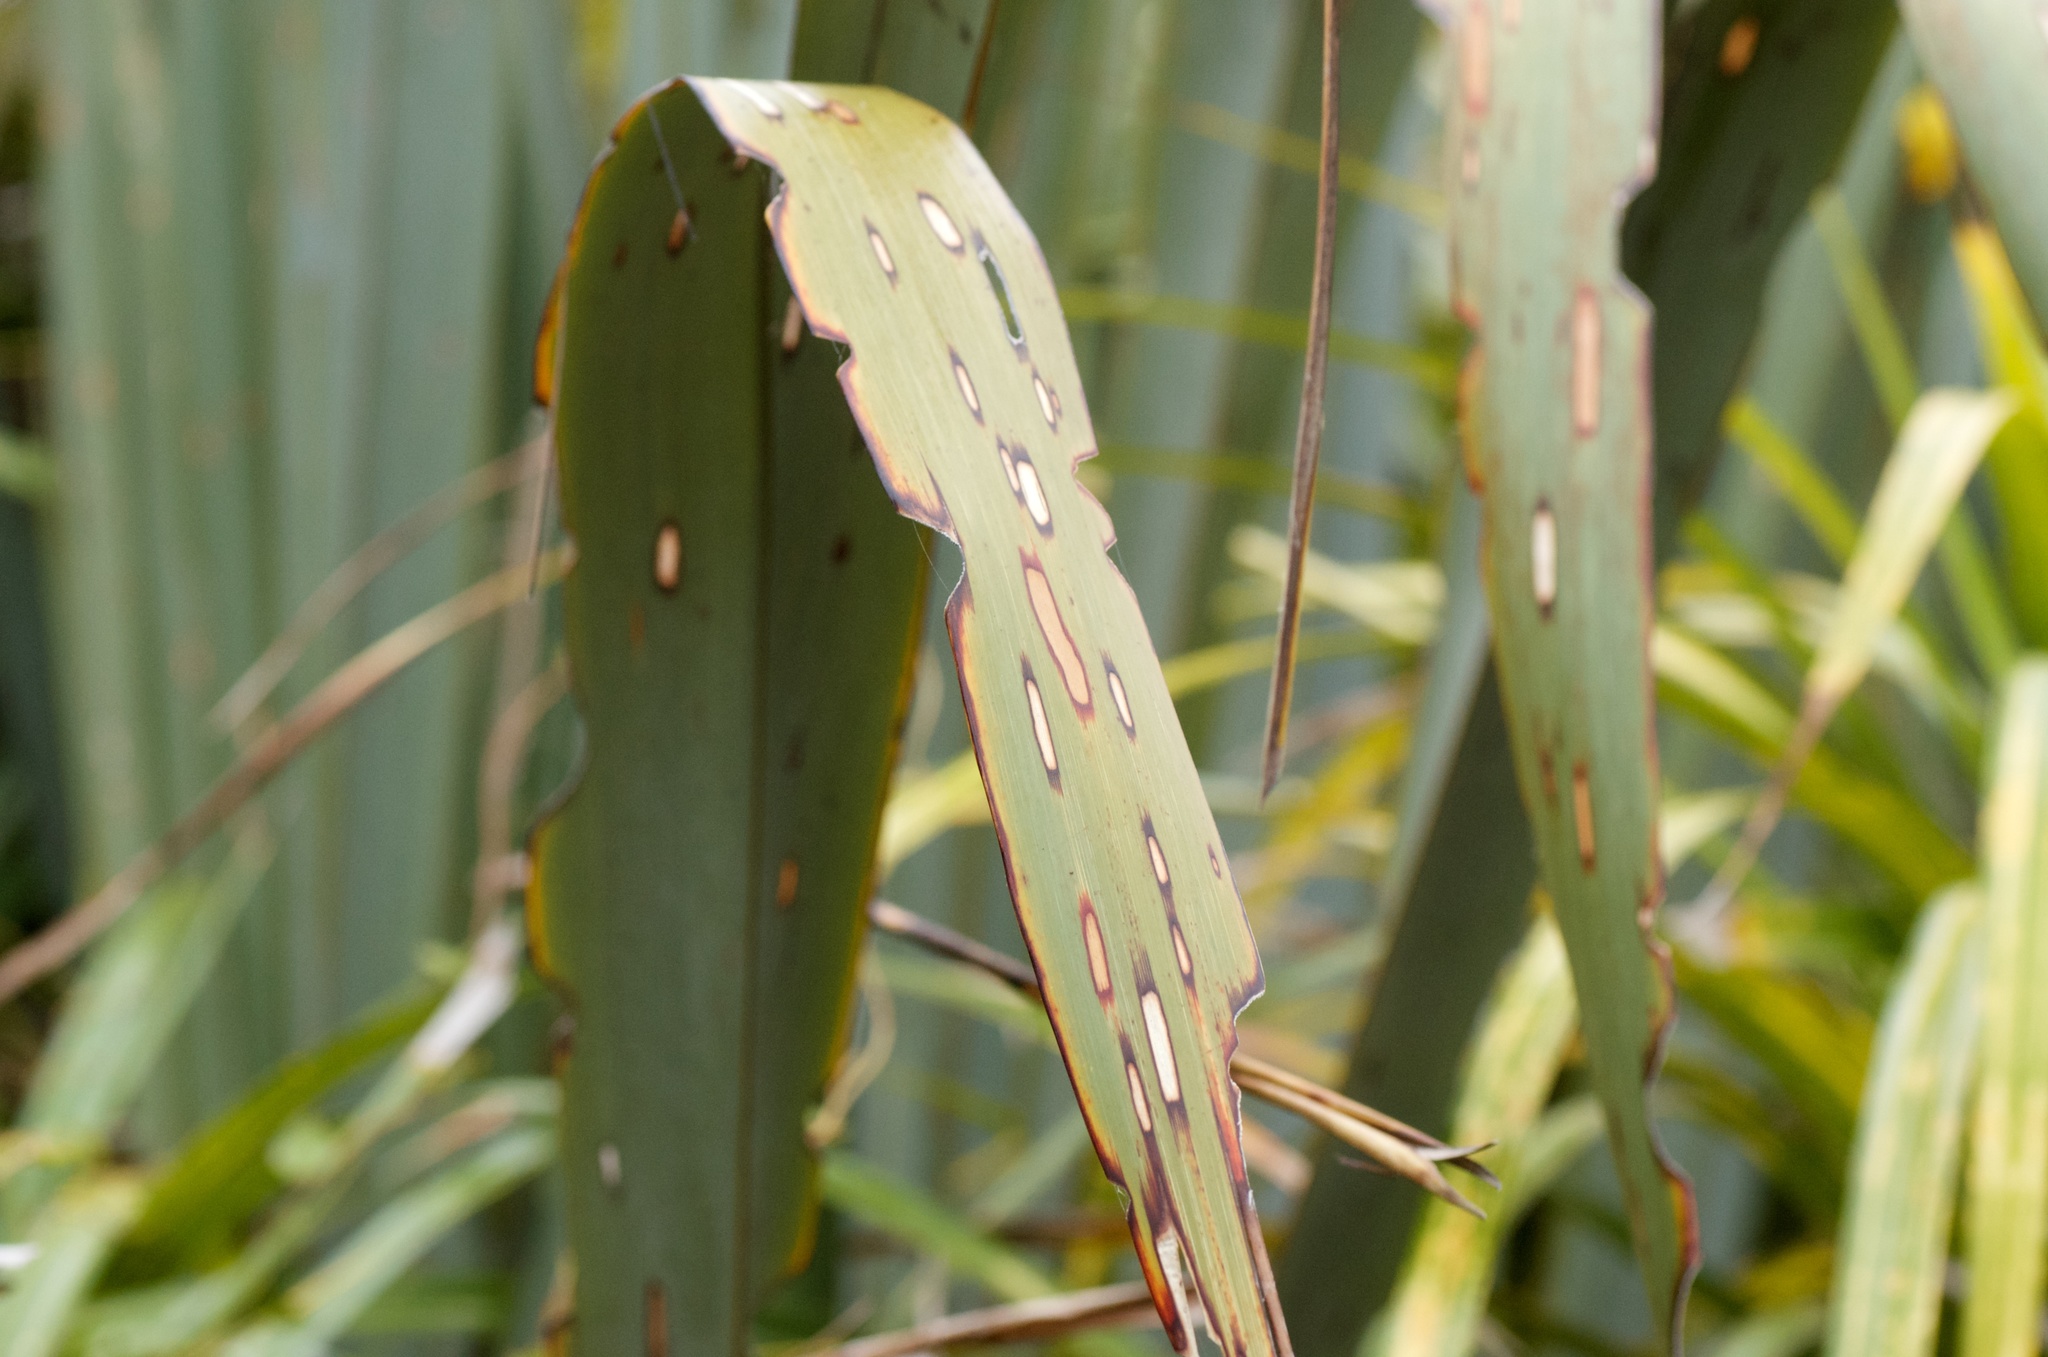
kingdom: Animalia
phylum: Arthropoda
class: Insecta
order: Lepidoptera
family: Noctuidae
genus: Ichneutica
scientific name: Ichneutica
